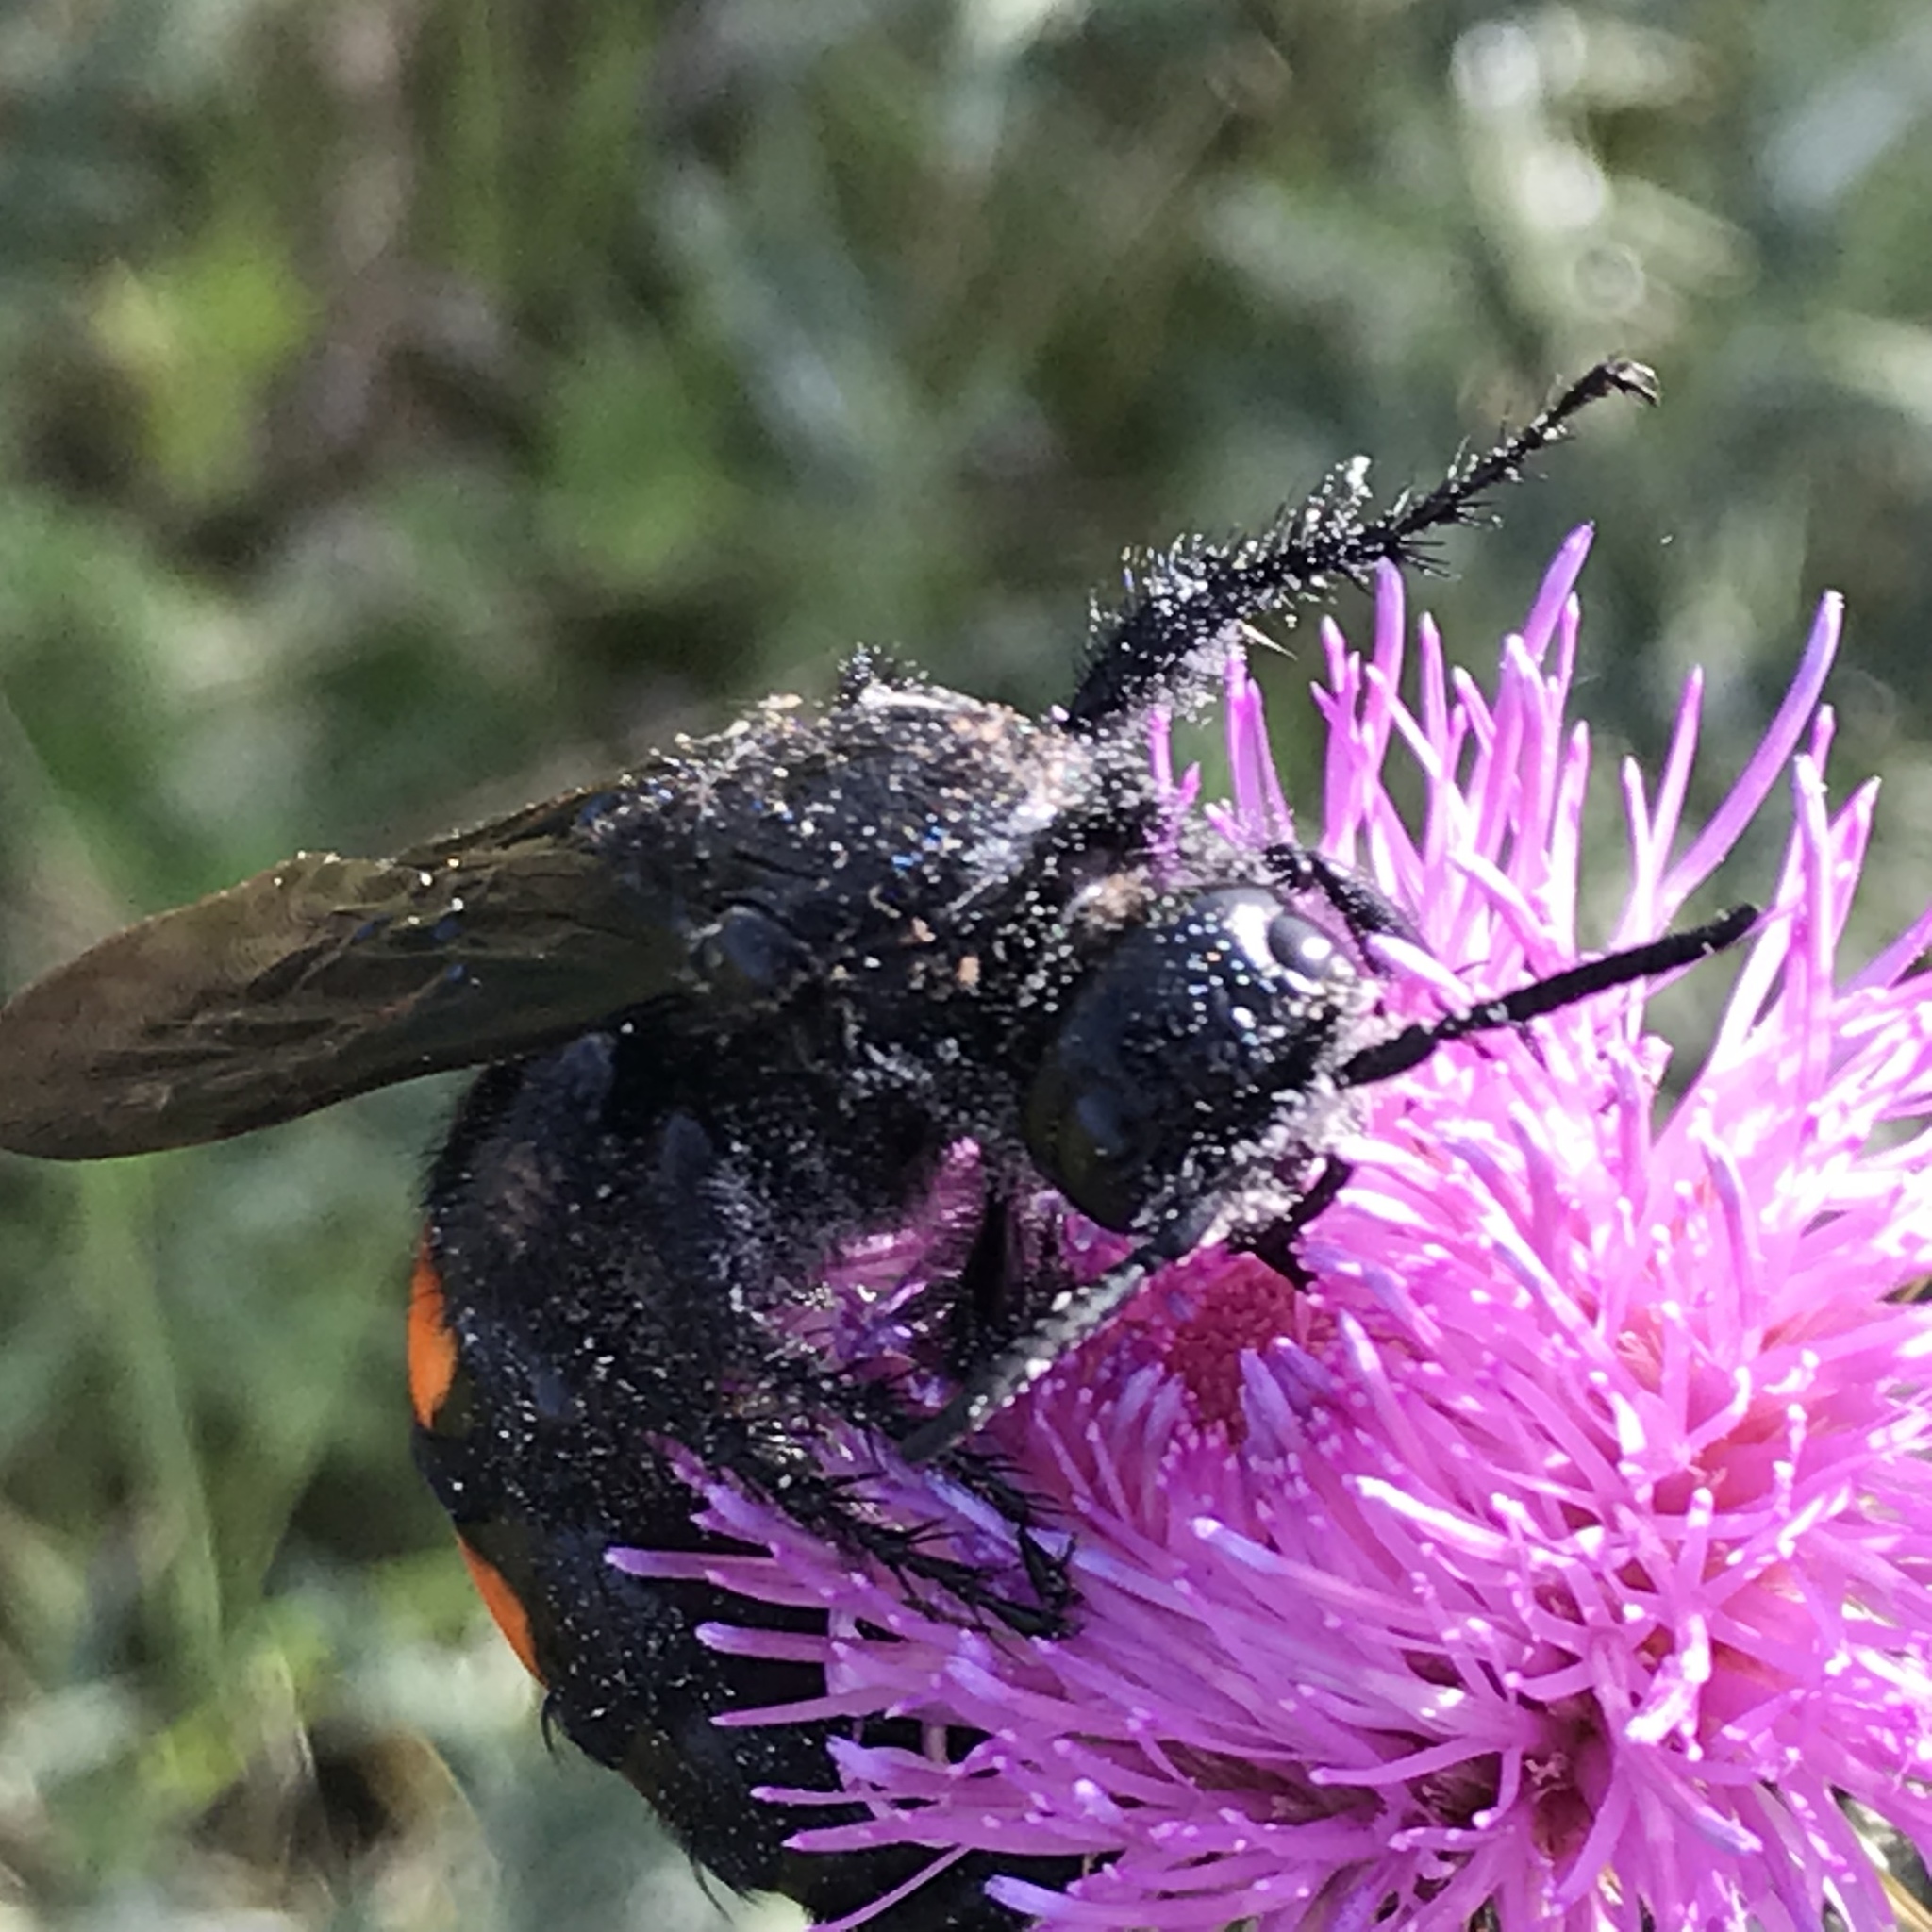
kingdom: Animalia
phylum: Arthropoda
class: Insecta
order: Hymenoptera
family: Scoliidae
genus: Pygodasis
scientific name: Pygodasis ephippium
